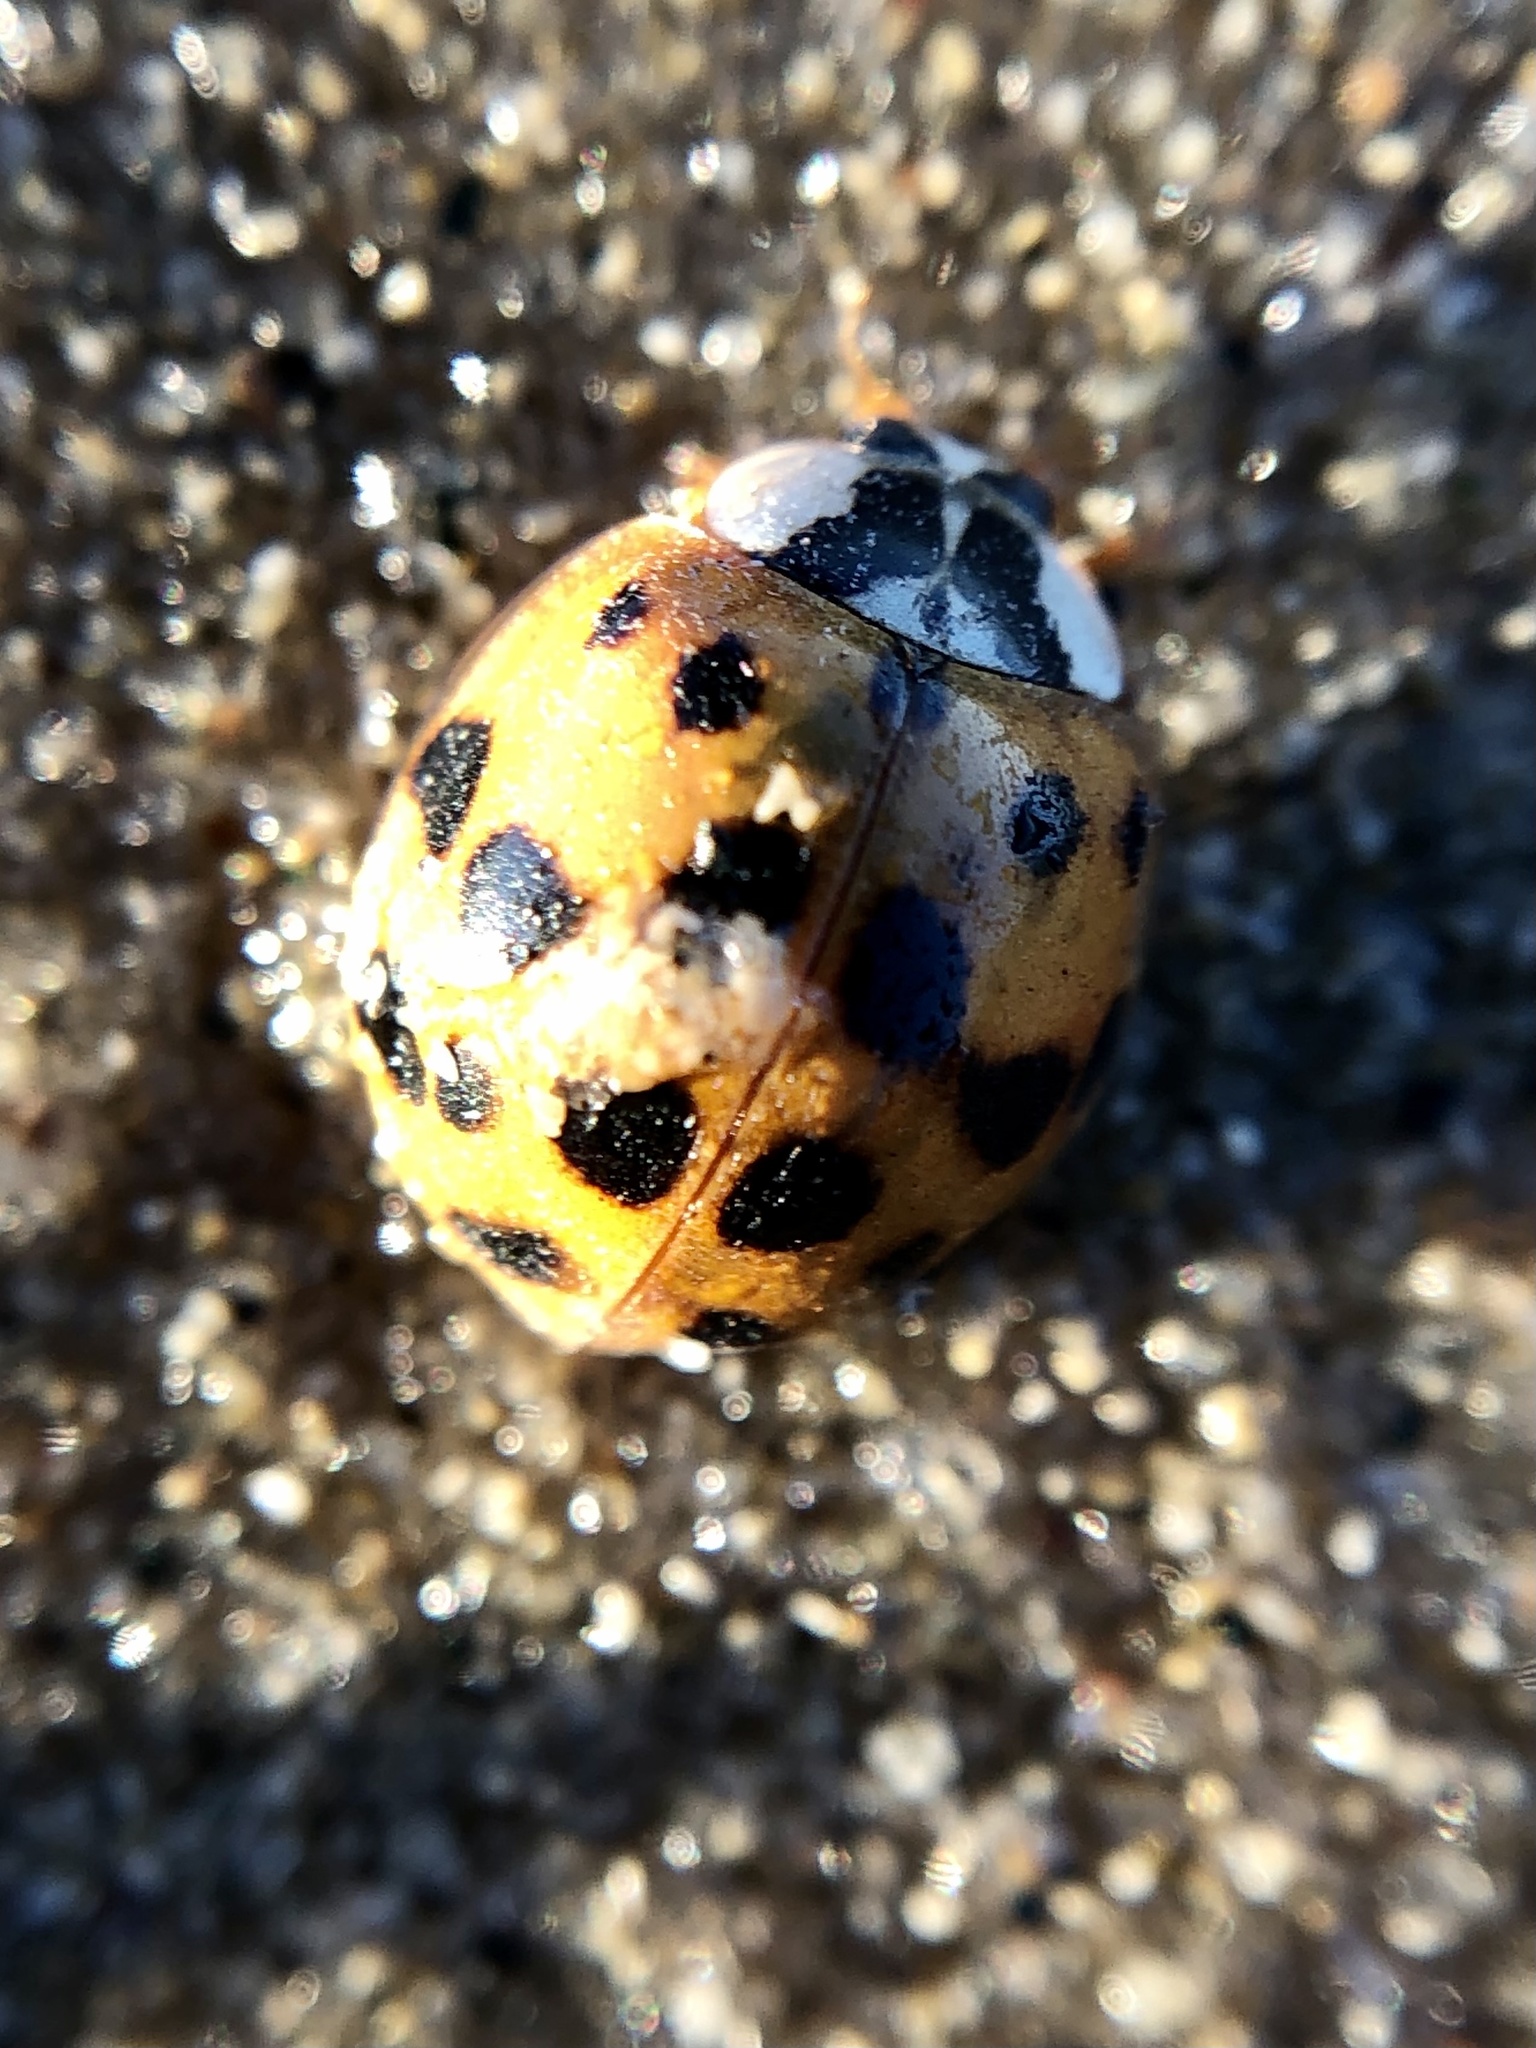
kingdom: Animalia
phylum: Arthropoda
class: Insecta
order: Coleoptera
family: Coccinellidae
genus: Harmonia
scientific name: Harmonia axyridis
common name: Harlequin ladybird
